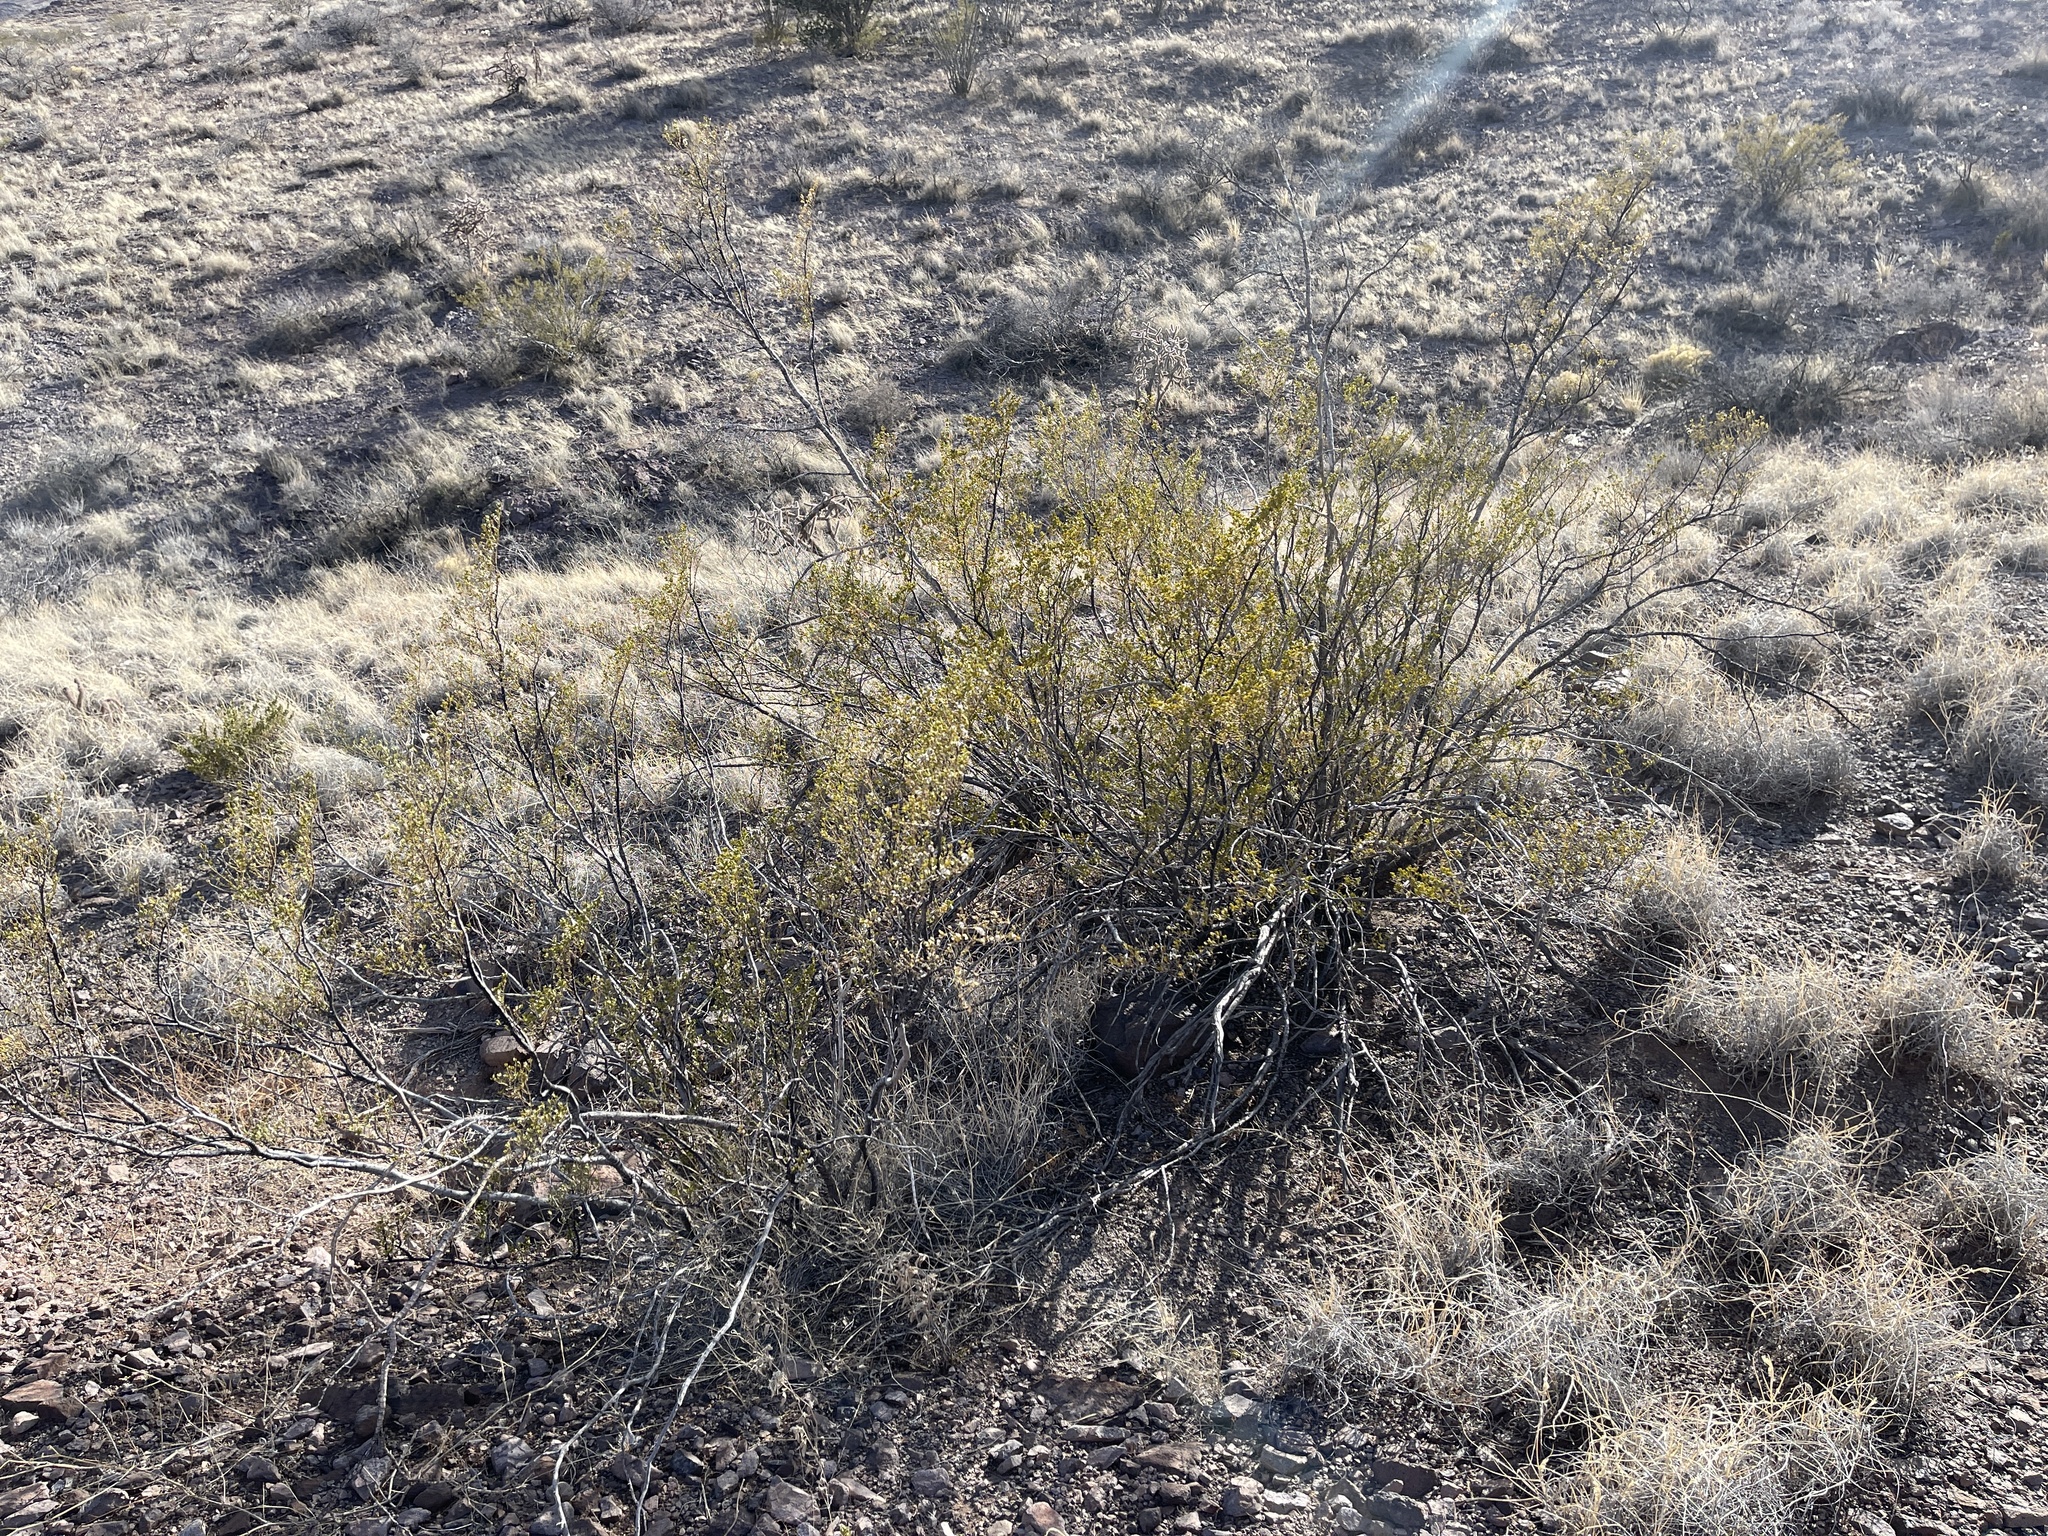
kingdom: Plantae
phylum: Tracheophyta
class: Magnoliopsida
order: Zygophyllales
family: Zygophyllaceae
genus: Larrea
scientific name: Larrea tridentata
